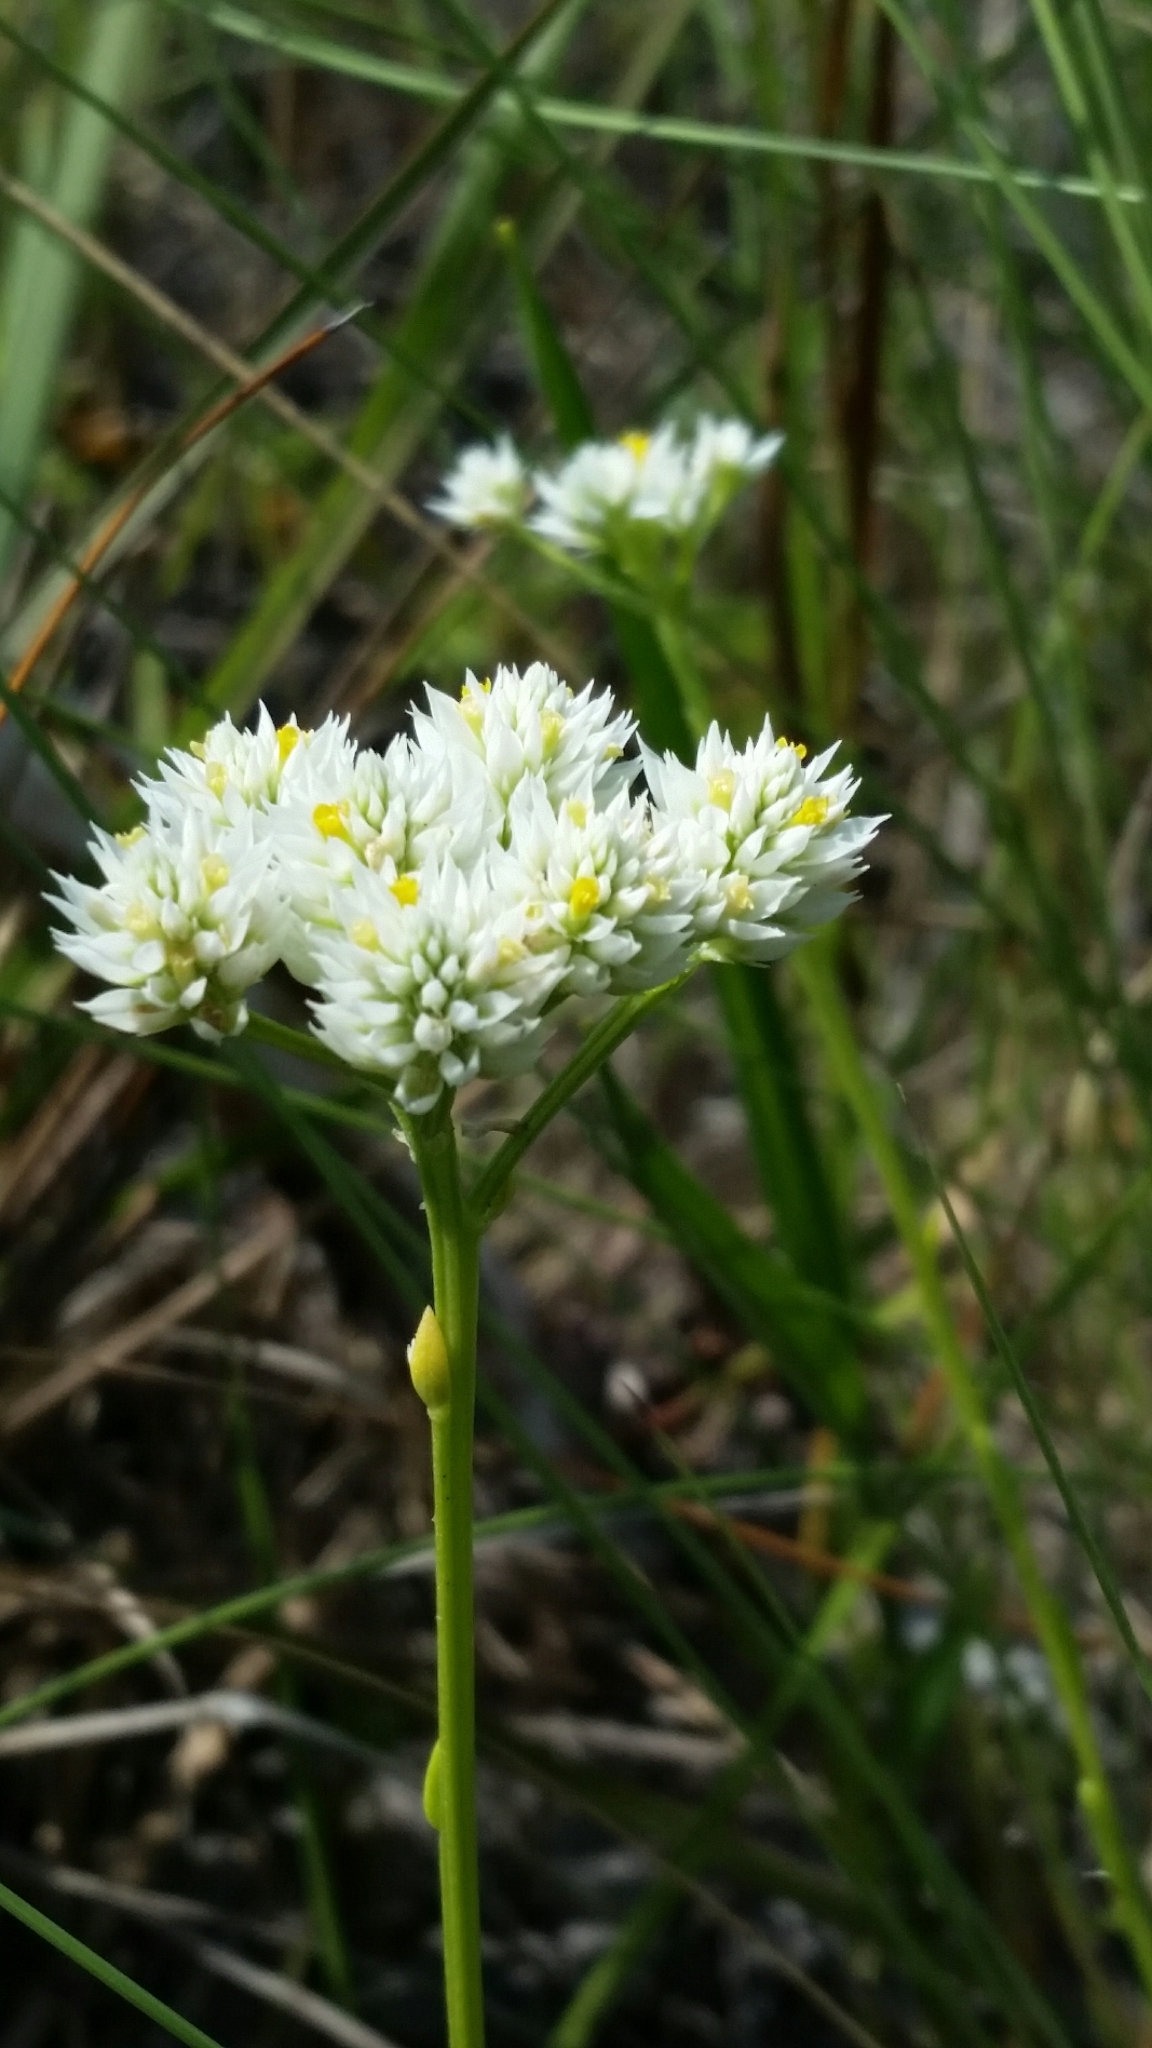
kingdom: Plantae
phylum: Tracheophyta
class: Magnoliopsida
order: Fabales
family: Polygalaceae
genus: Polygala
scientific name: Polygala baldwinii
